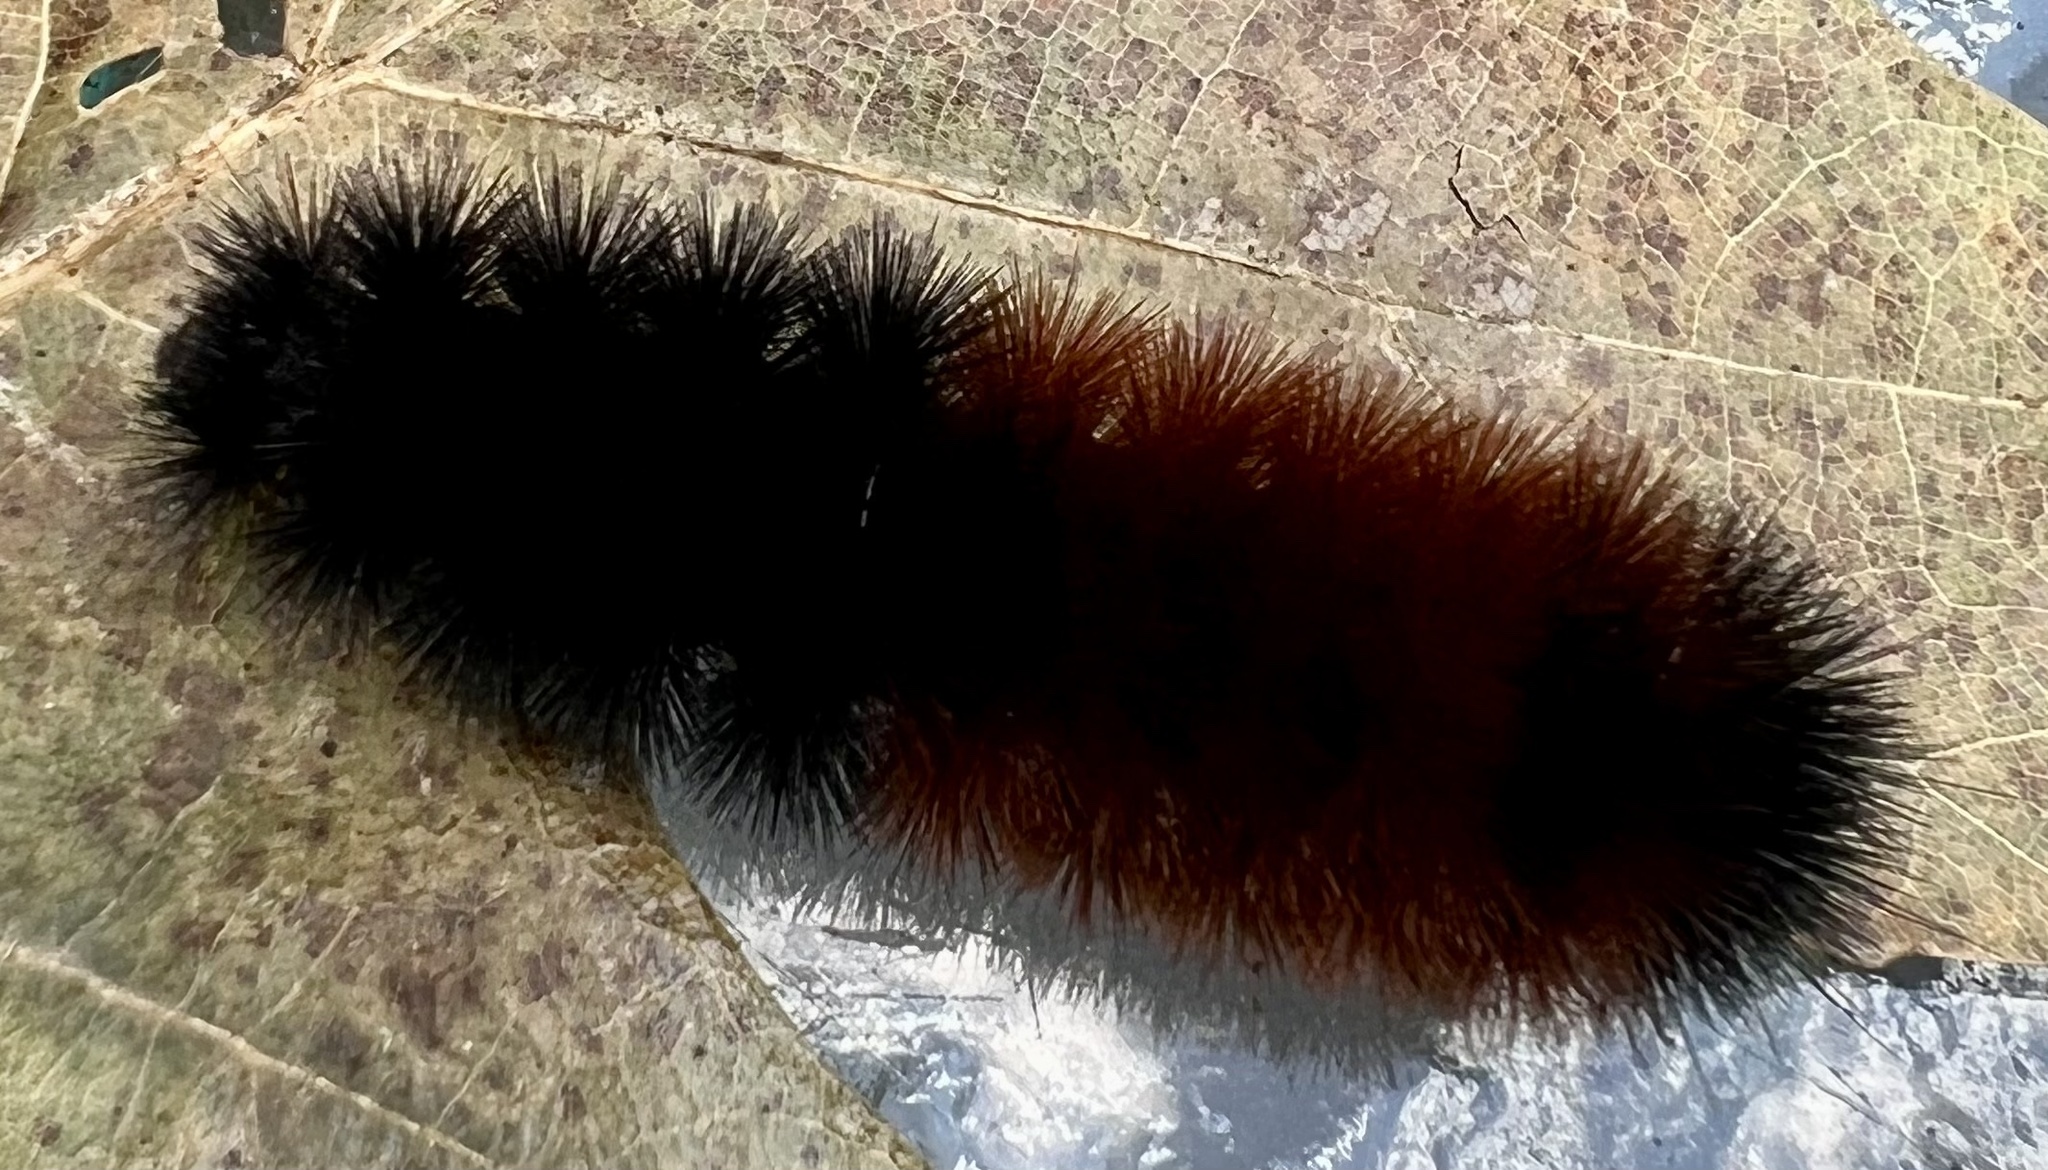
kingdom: Animalia
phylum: Arthropoda
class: Insecta
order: Lepidoptera
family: Erebidae
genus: Pyrrharctia
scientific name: Pyrrharctia isabella
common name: Isabella tiger moth
